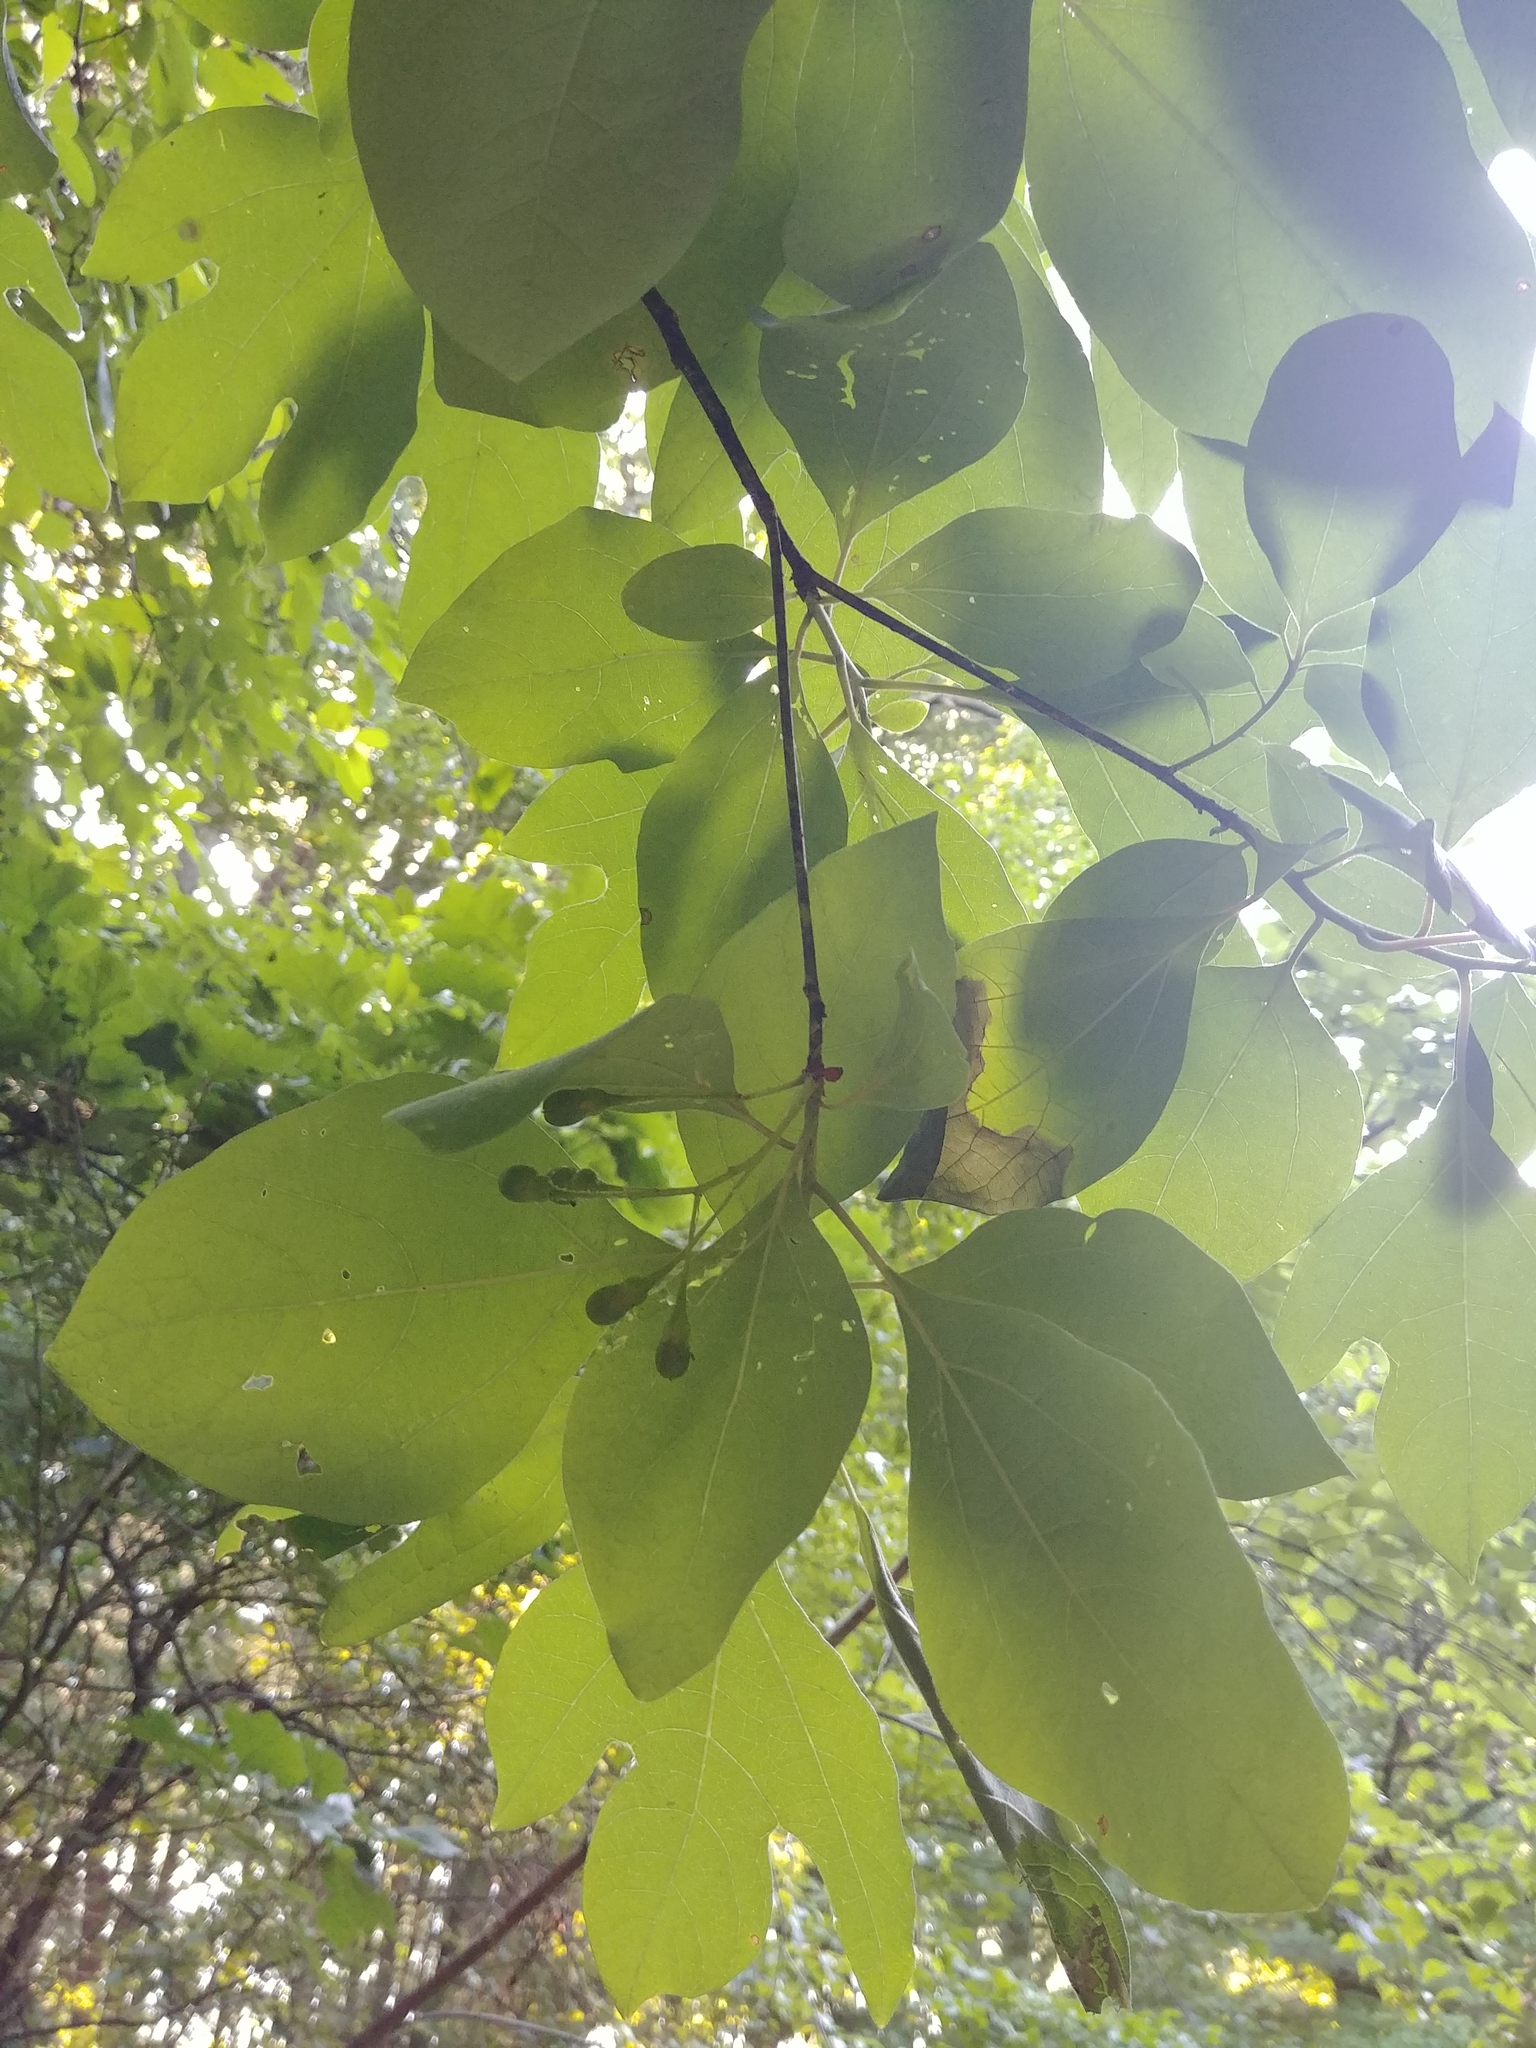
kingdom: Plantae
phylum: Tracheophyta
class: Magnoliopsida
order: Laurales
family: Lauraceae
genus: Sassafras
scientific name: Sassafras albidum
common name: Sassafras
